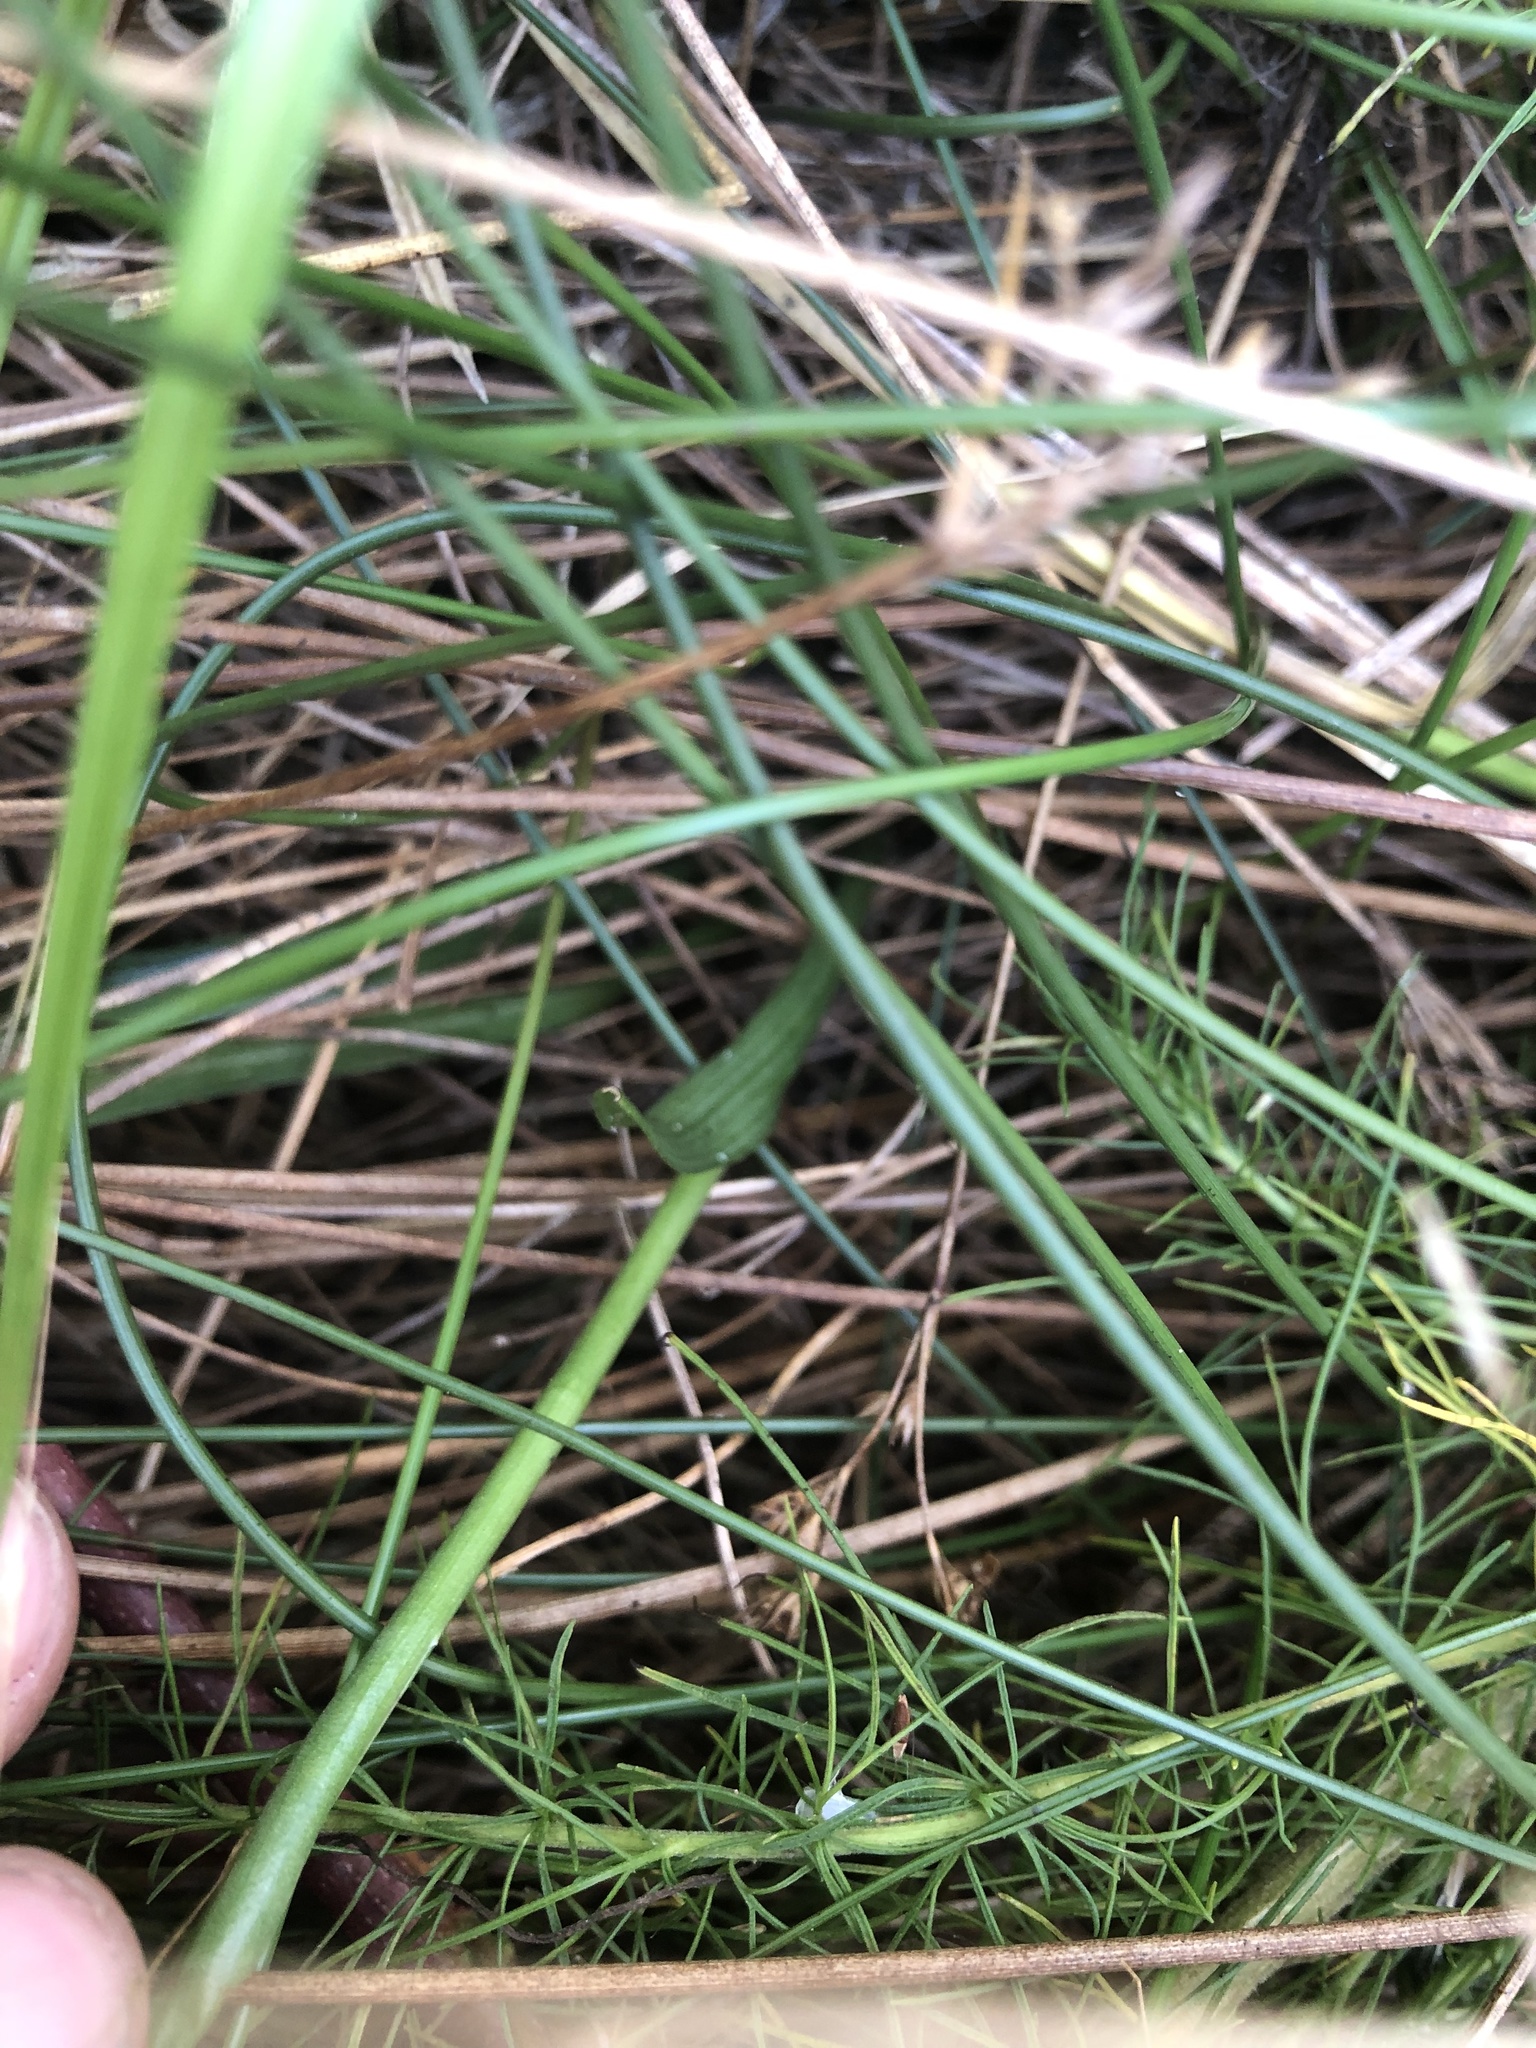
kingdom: Plantae
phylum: Tracheophyta
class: Liliopsida
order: Asparagales
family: Orchidaceae
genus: Spiranthes
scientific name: Spiranthes cernua
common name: Dropping ladies'-tresses
